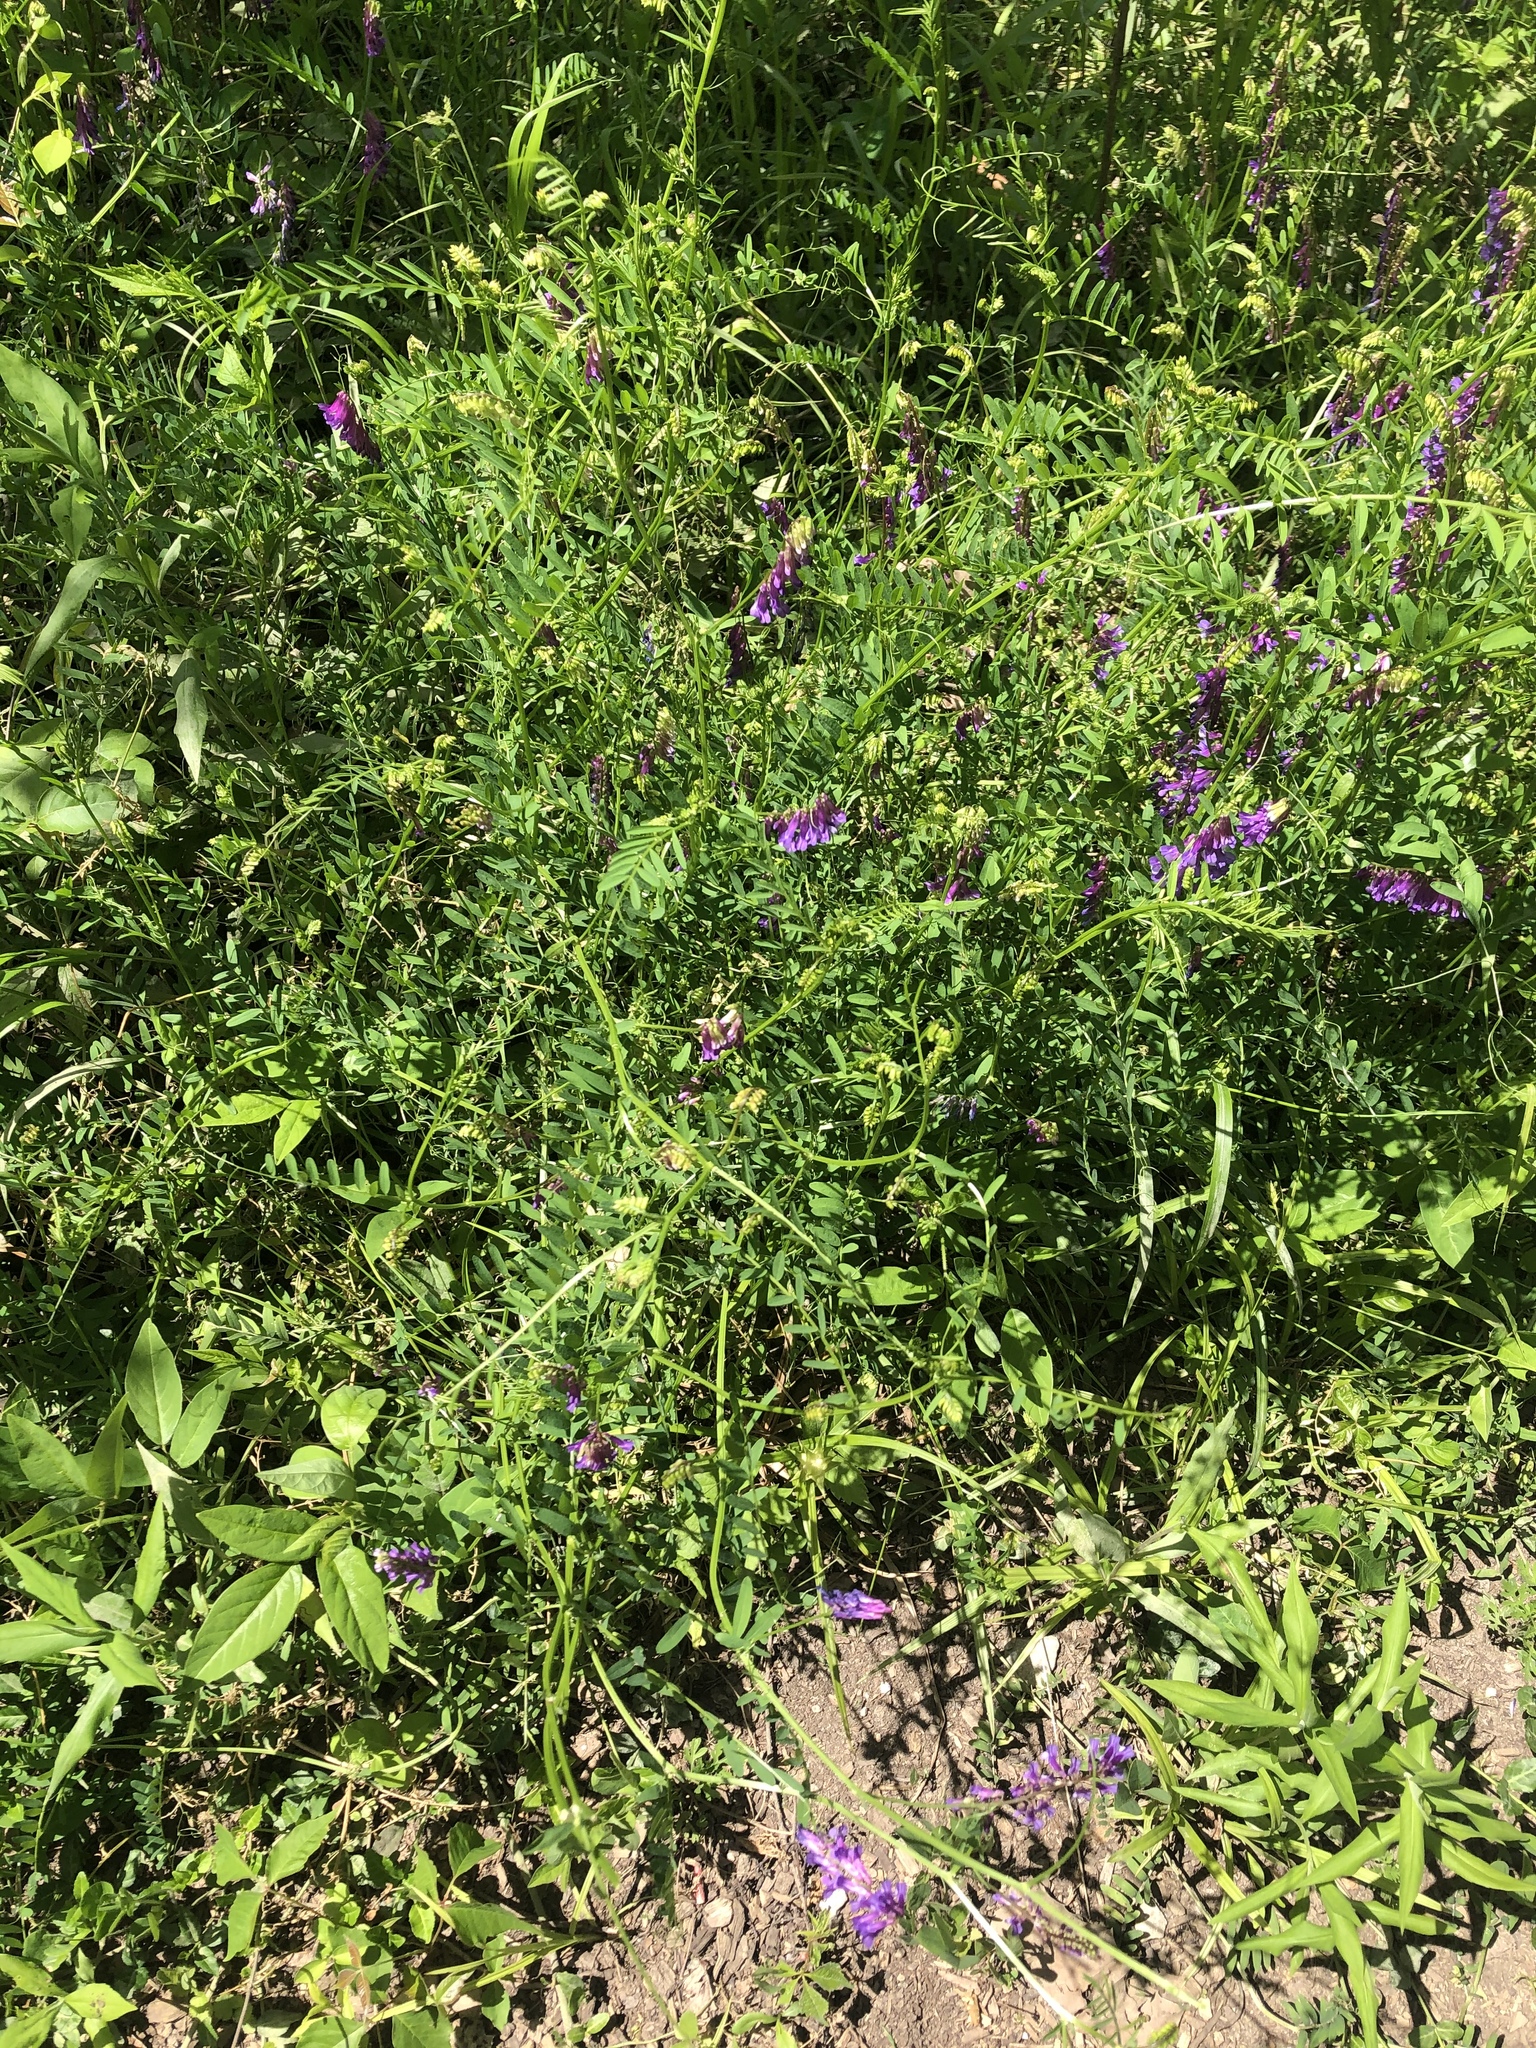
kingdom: Plantae
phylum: Tracheophyta
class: Magnoliopsida
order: Fabales
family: Fabaceae
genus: Vicia
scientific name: Vicia villosa
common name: Fodder vetch
